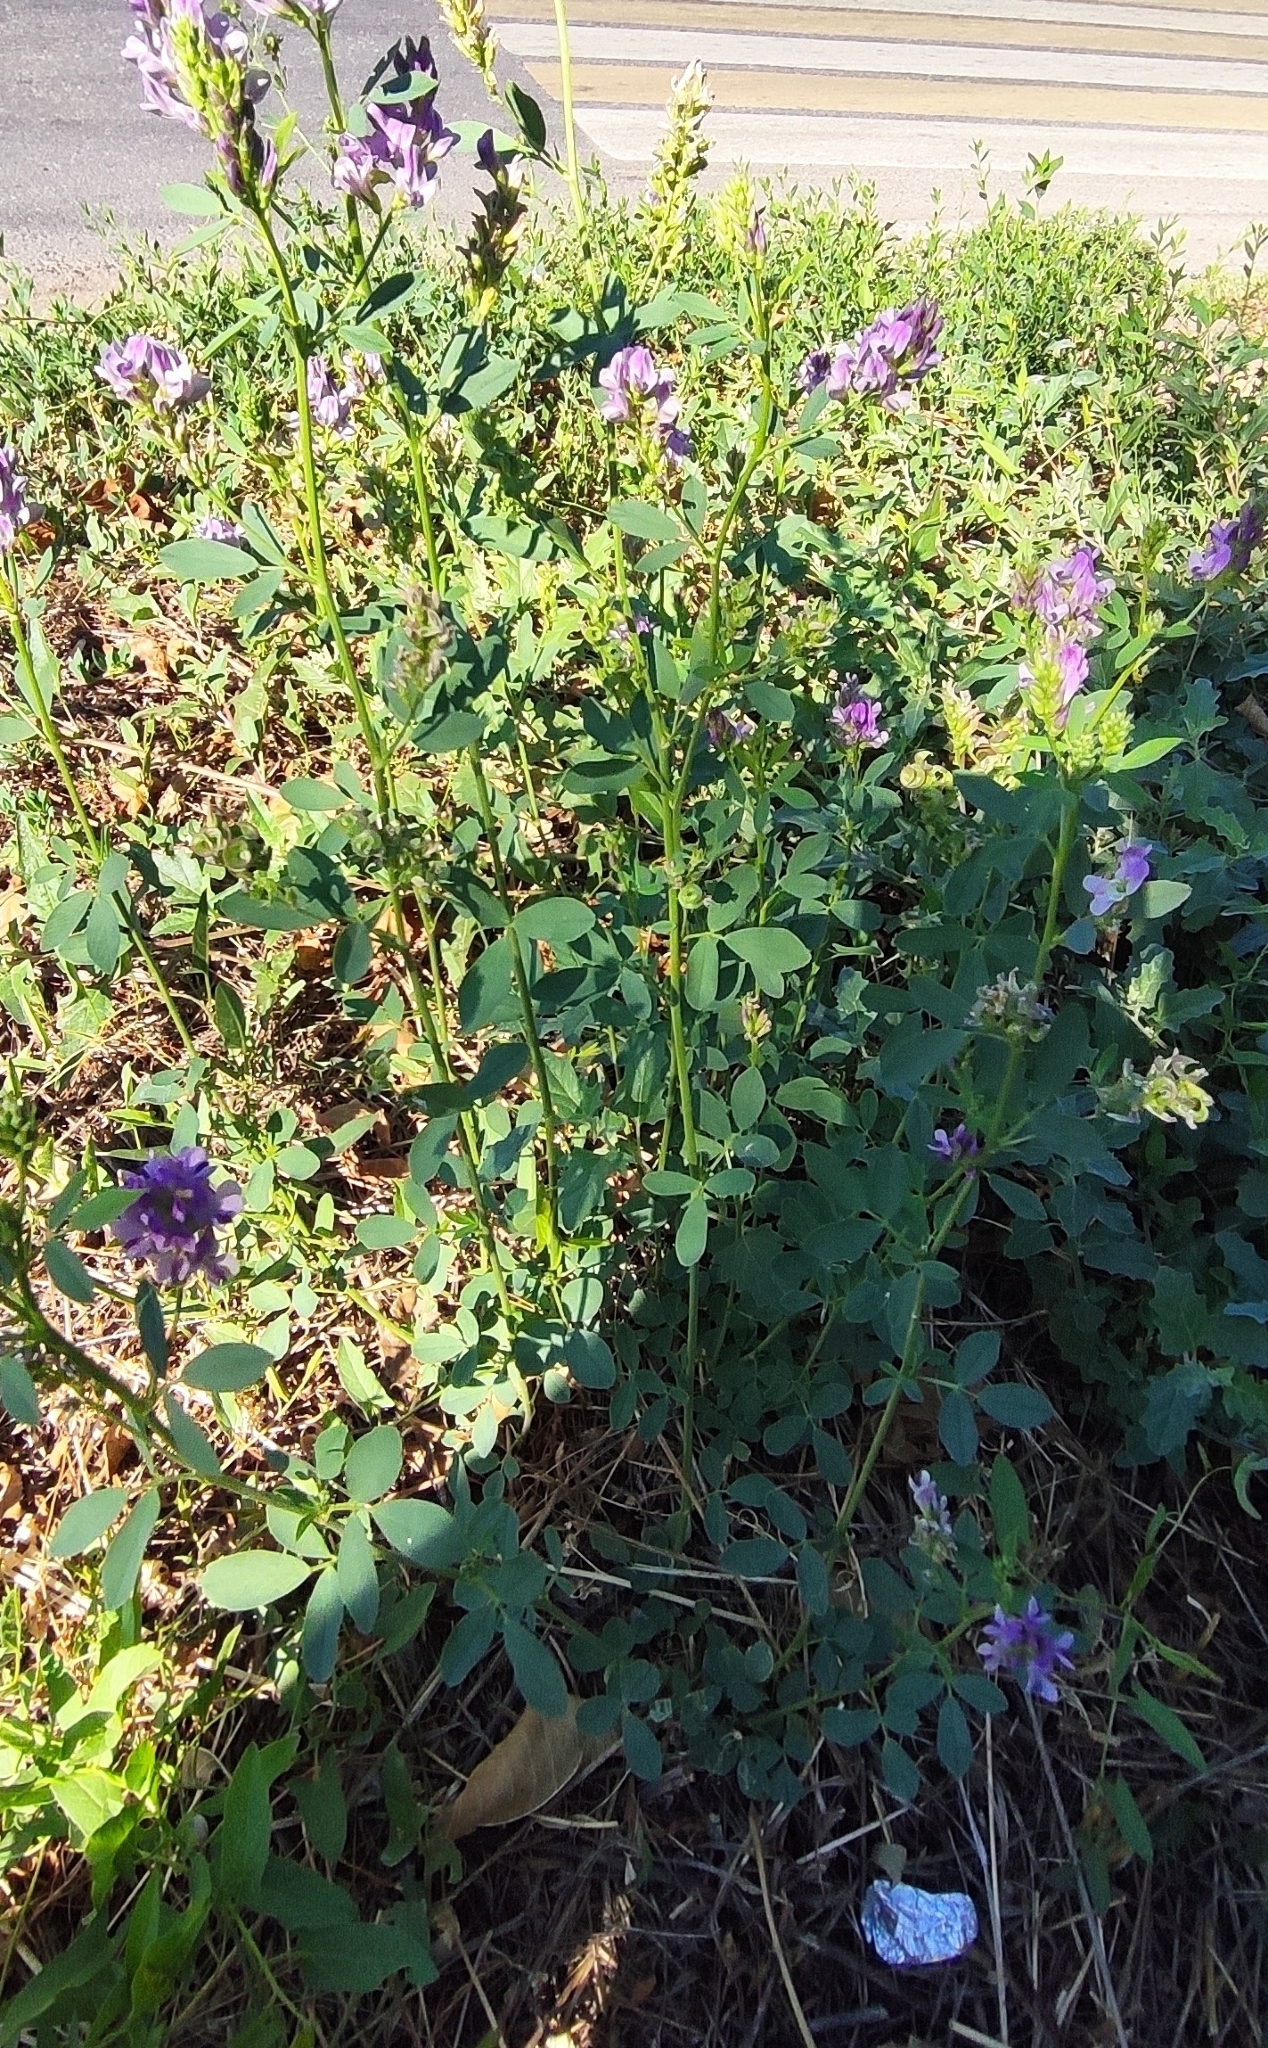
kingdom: Plantae
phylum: Tracheophyta
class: Magnoliopsida
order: Fabales
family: Fabaceae
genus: Medicago
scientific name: Medicago sativa
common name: Alfalfa
